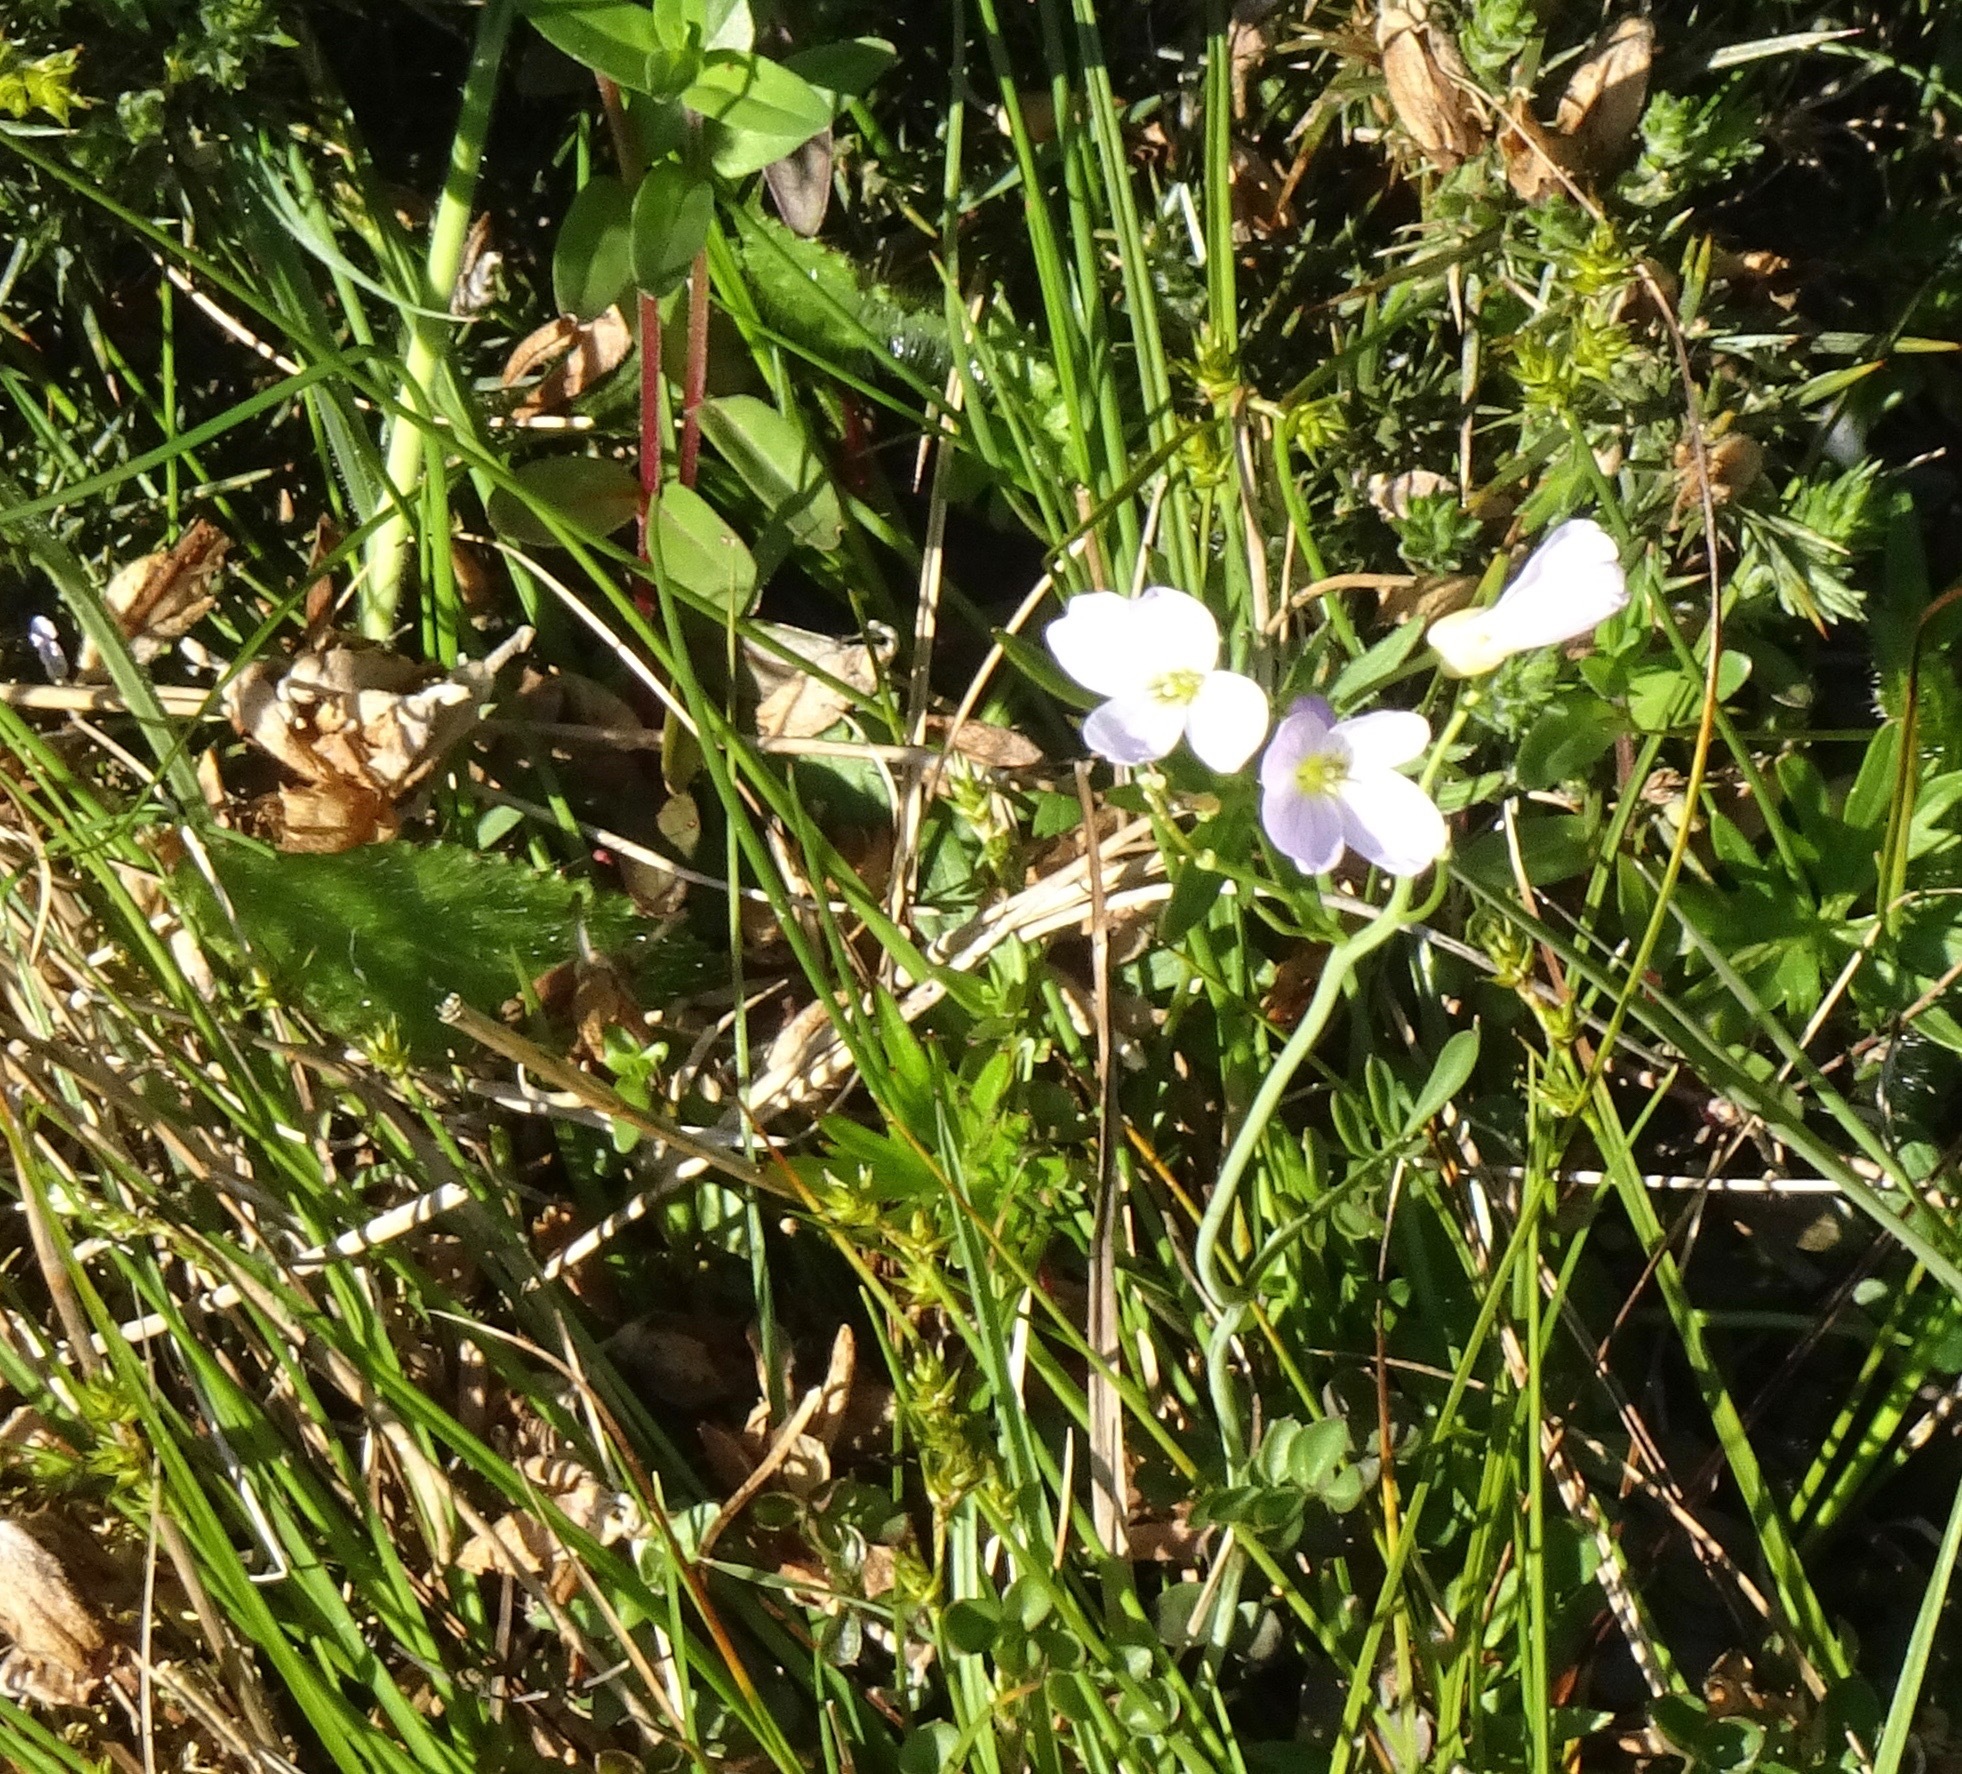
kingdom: Plantae
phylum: Tracheophyta
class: Magnoliopsida
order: Brassicales
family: Brassicaceae
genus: Cardamine
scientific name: Cardamine pratensis
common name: Cuckoo flower
